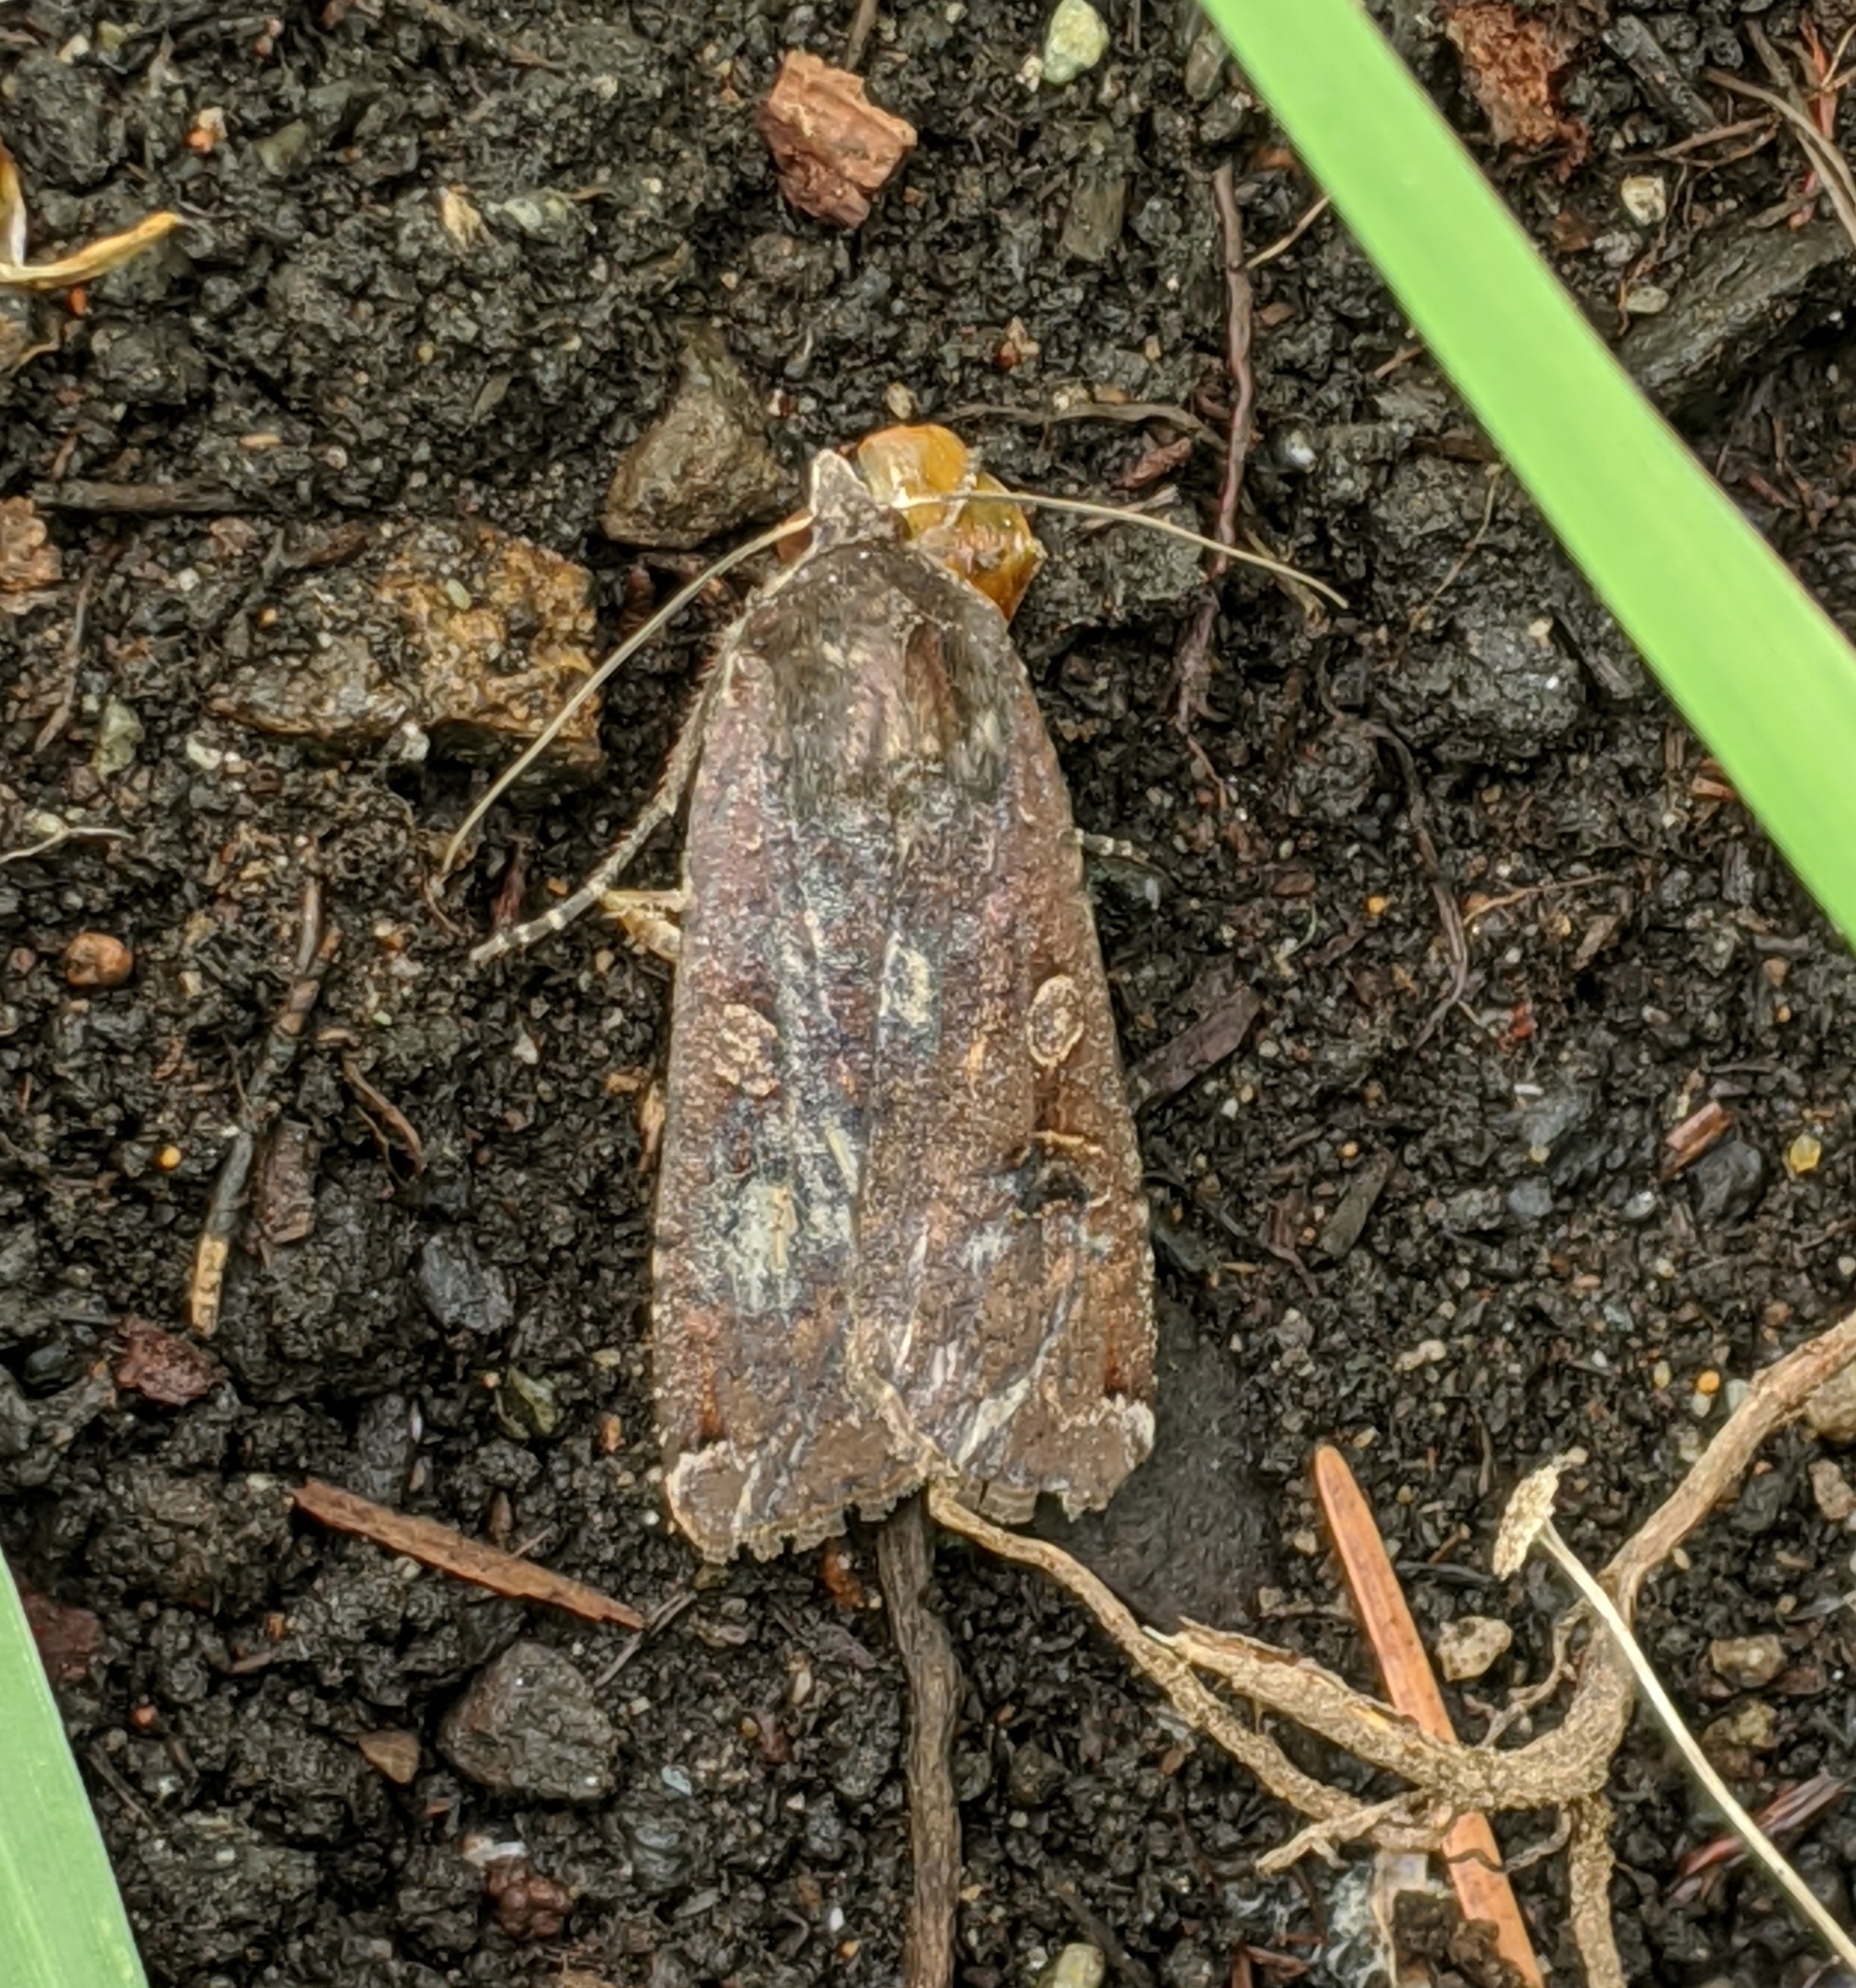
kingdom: Animalia
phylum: Arthropoda
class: Insecta
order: Lepidoptera
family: Noctuidae
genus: Noctua
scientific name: Noctua pronuba
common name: Large yellow underwing
